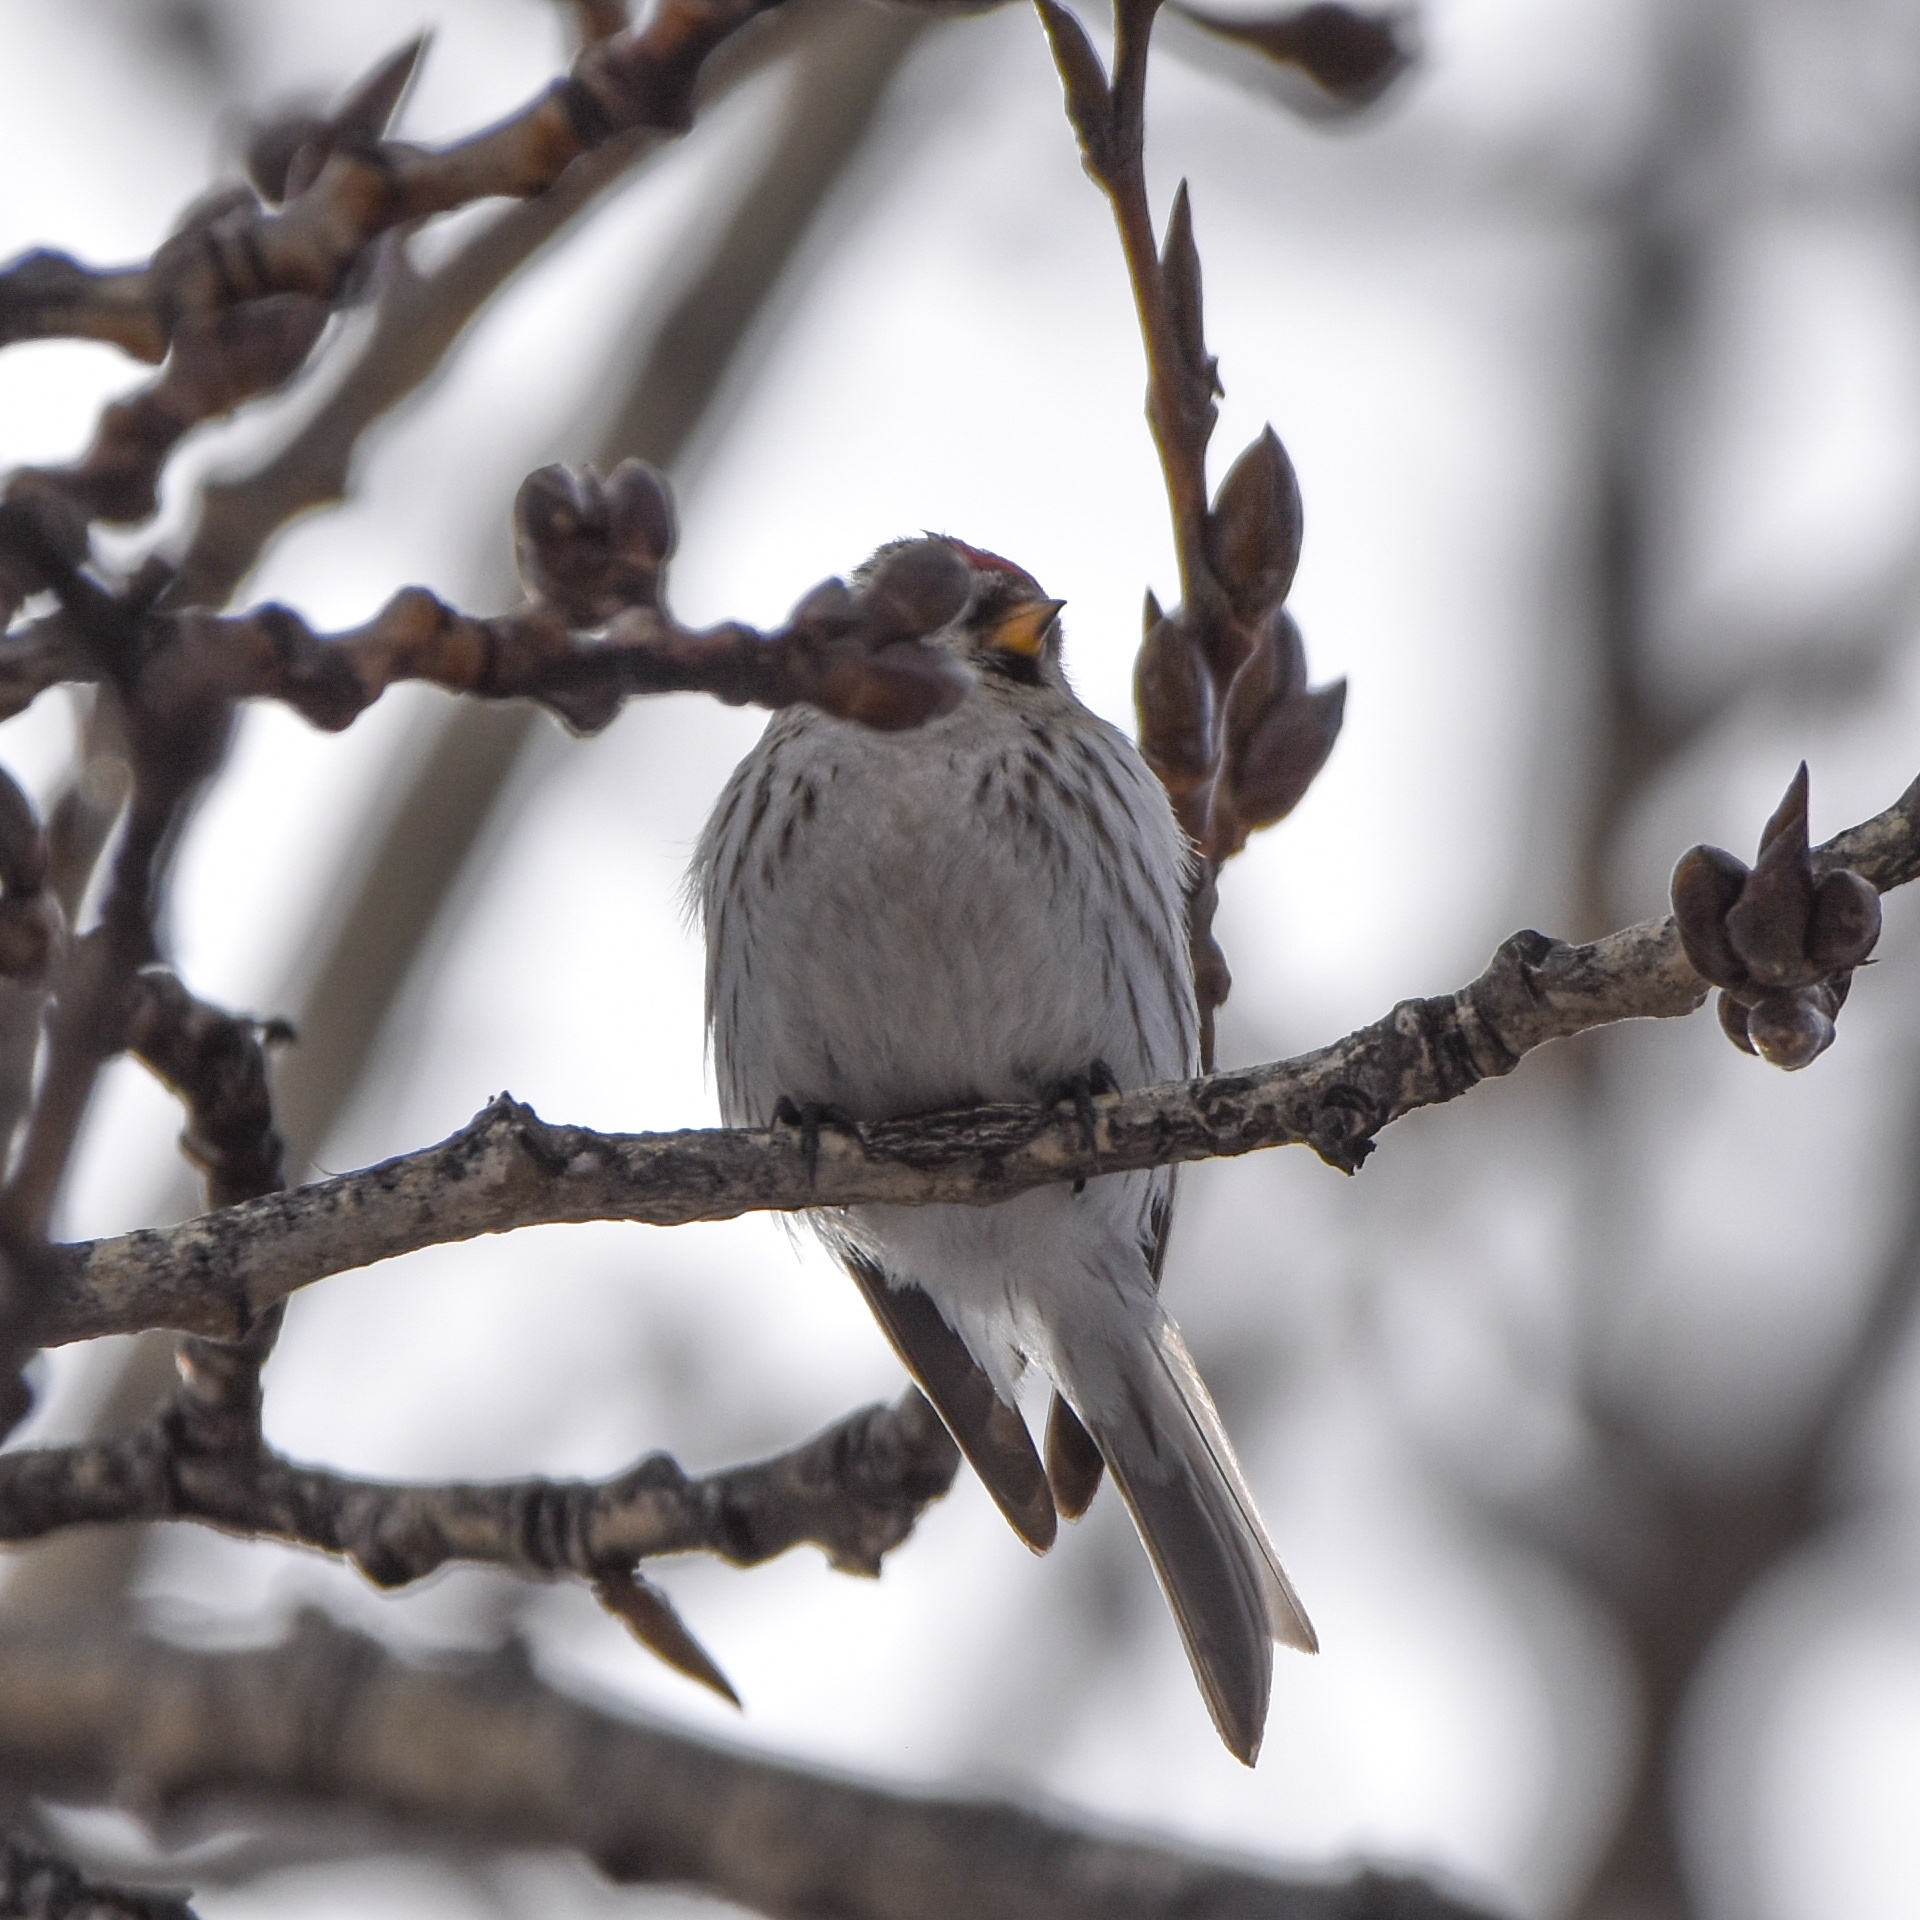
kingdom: Animalia
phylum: Chordata
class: Aves
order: Passeriformes
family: Fringillidae
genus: Acanthis
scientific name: Acanthis hornemanni
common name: Arctic redpoll
